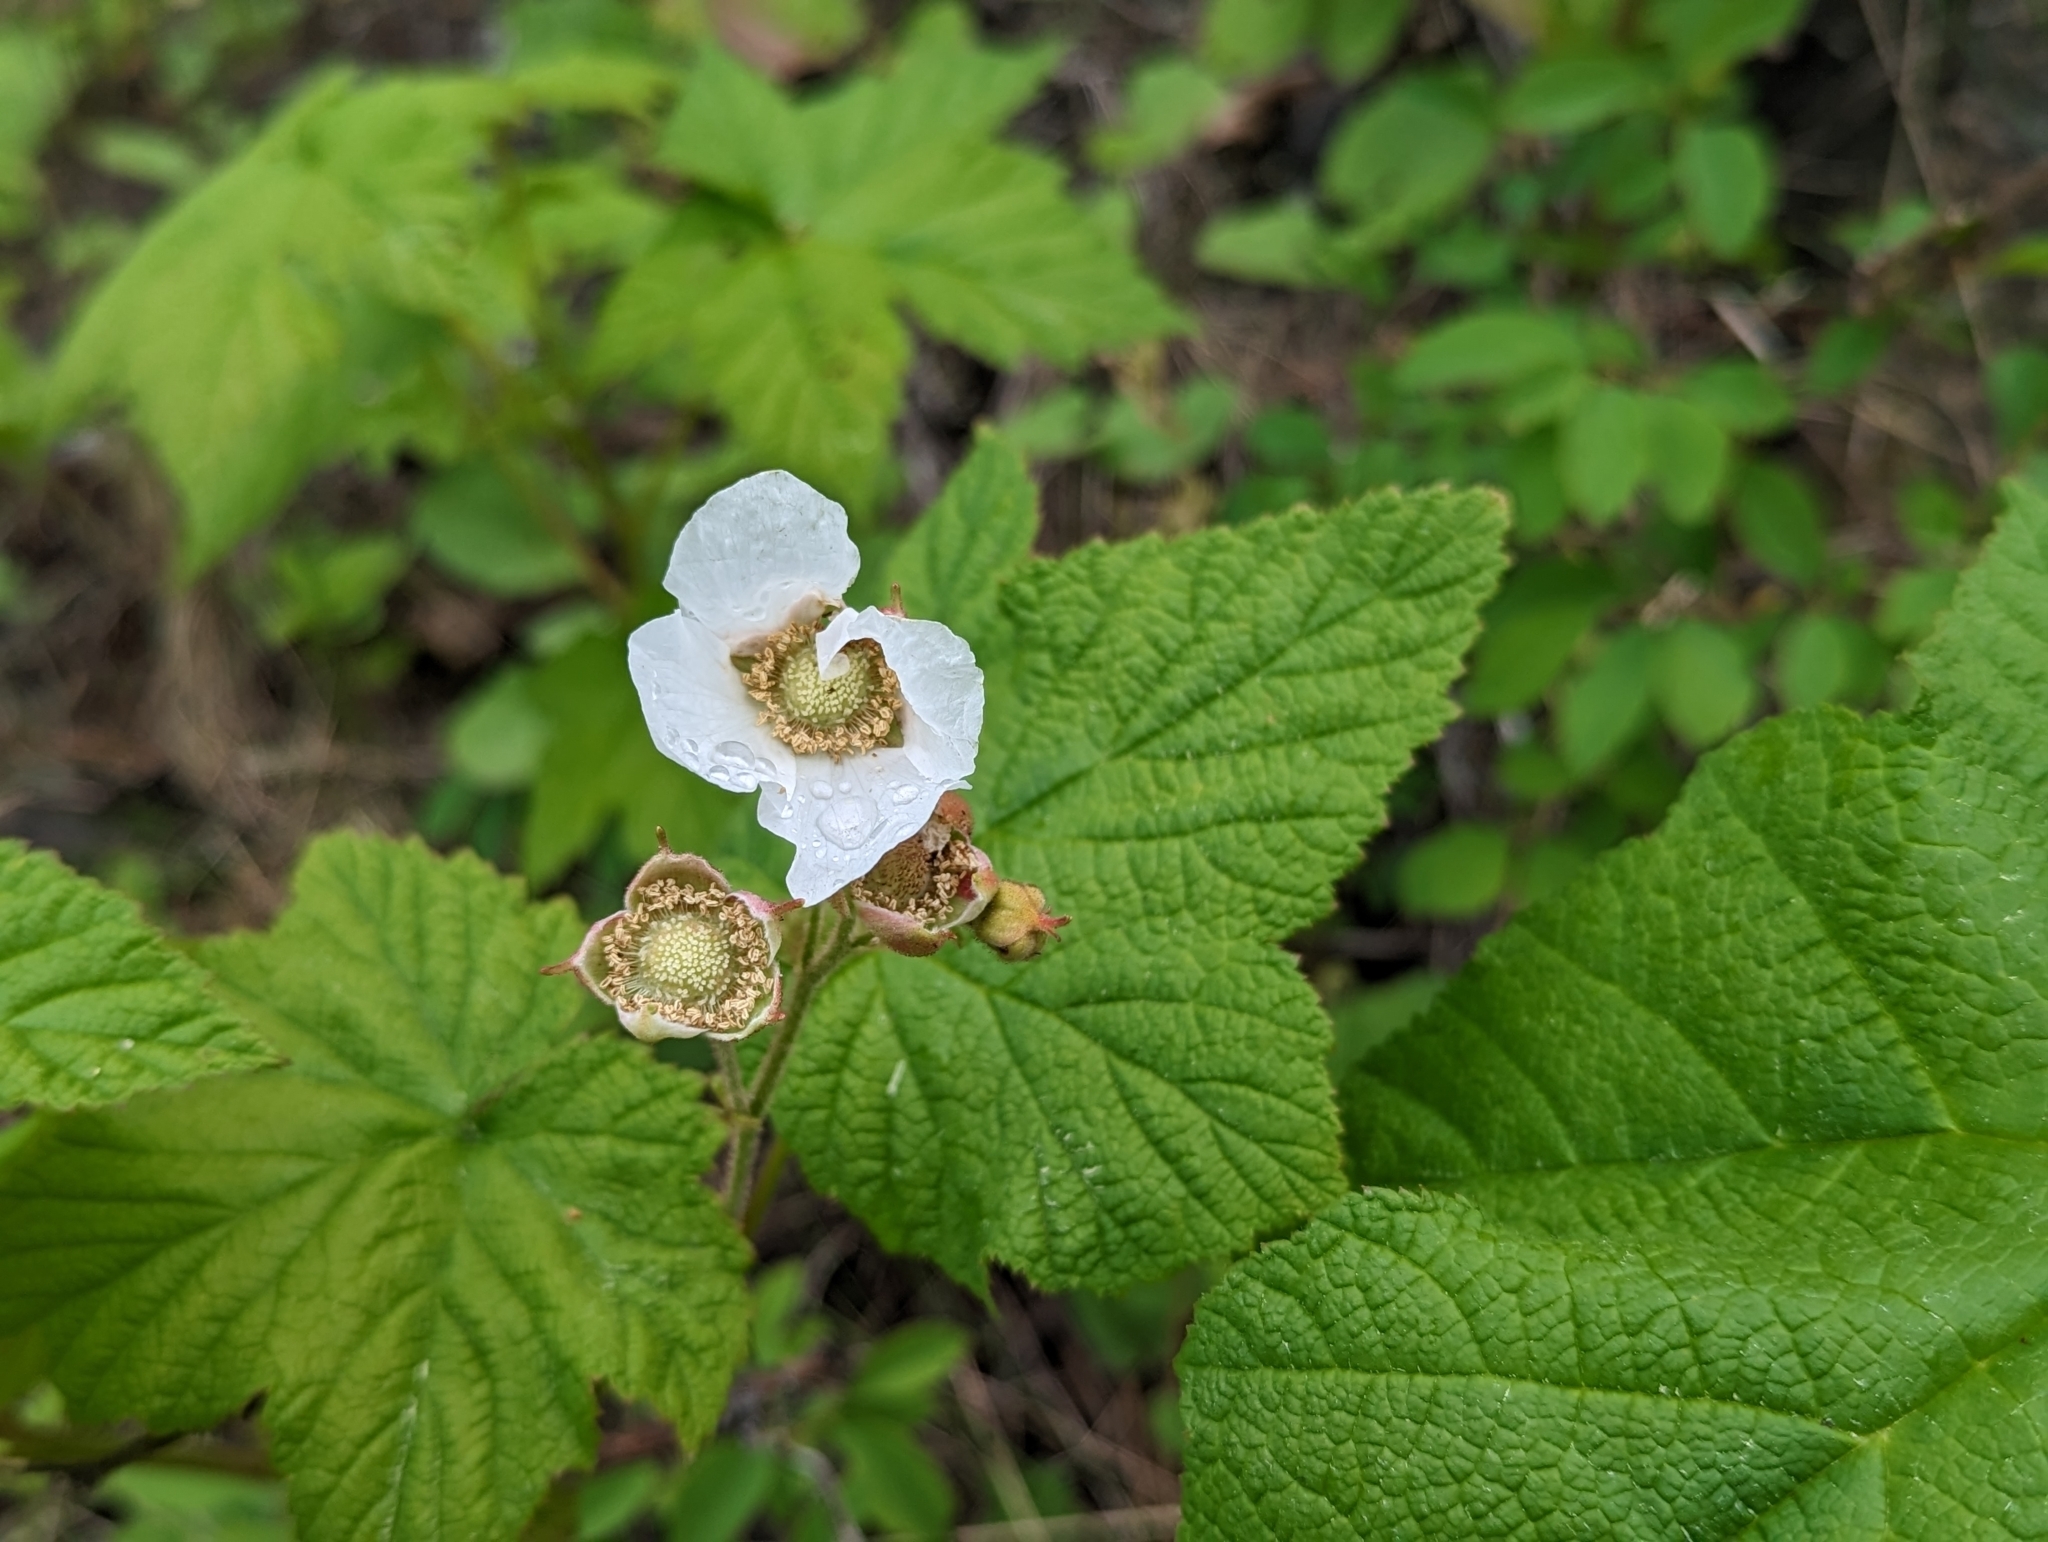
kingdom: Plantae
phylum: Tracheophyta
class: Magnoliopsida
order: Rosales
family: Rosaceae
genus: Rubus
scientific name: Rubus parviflorus
